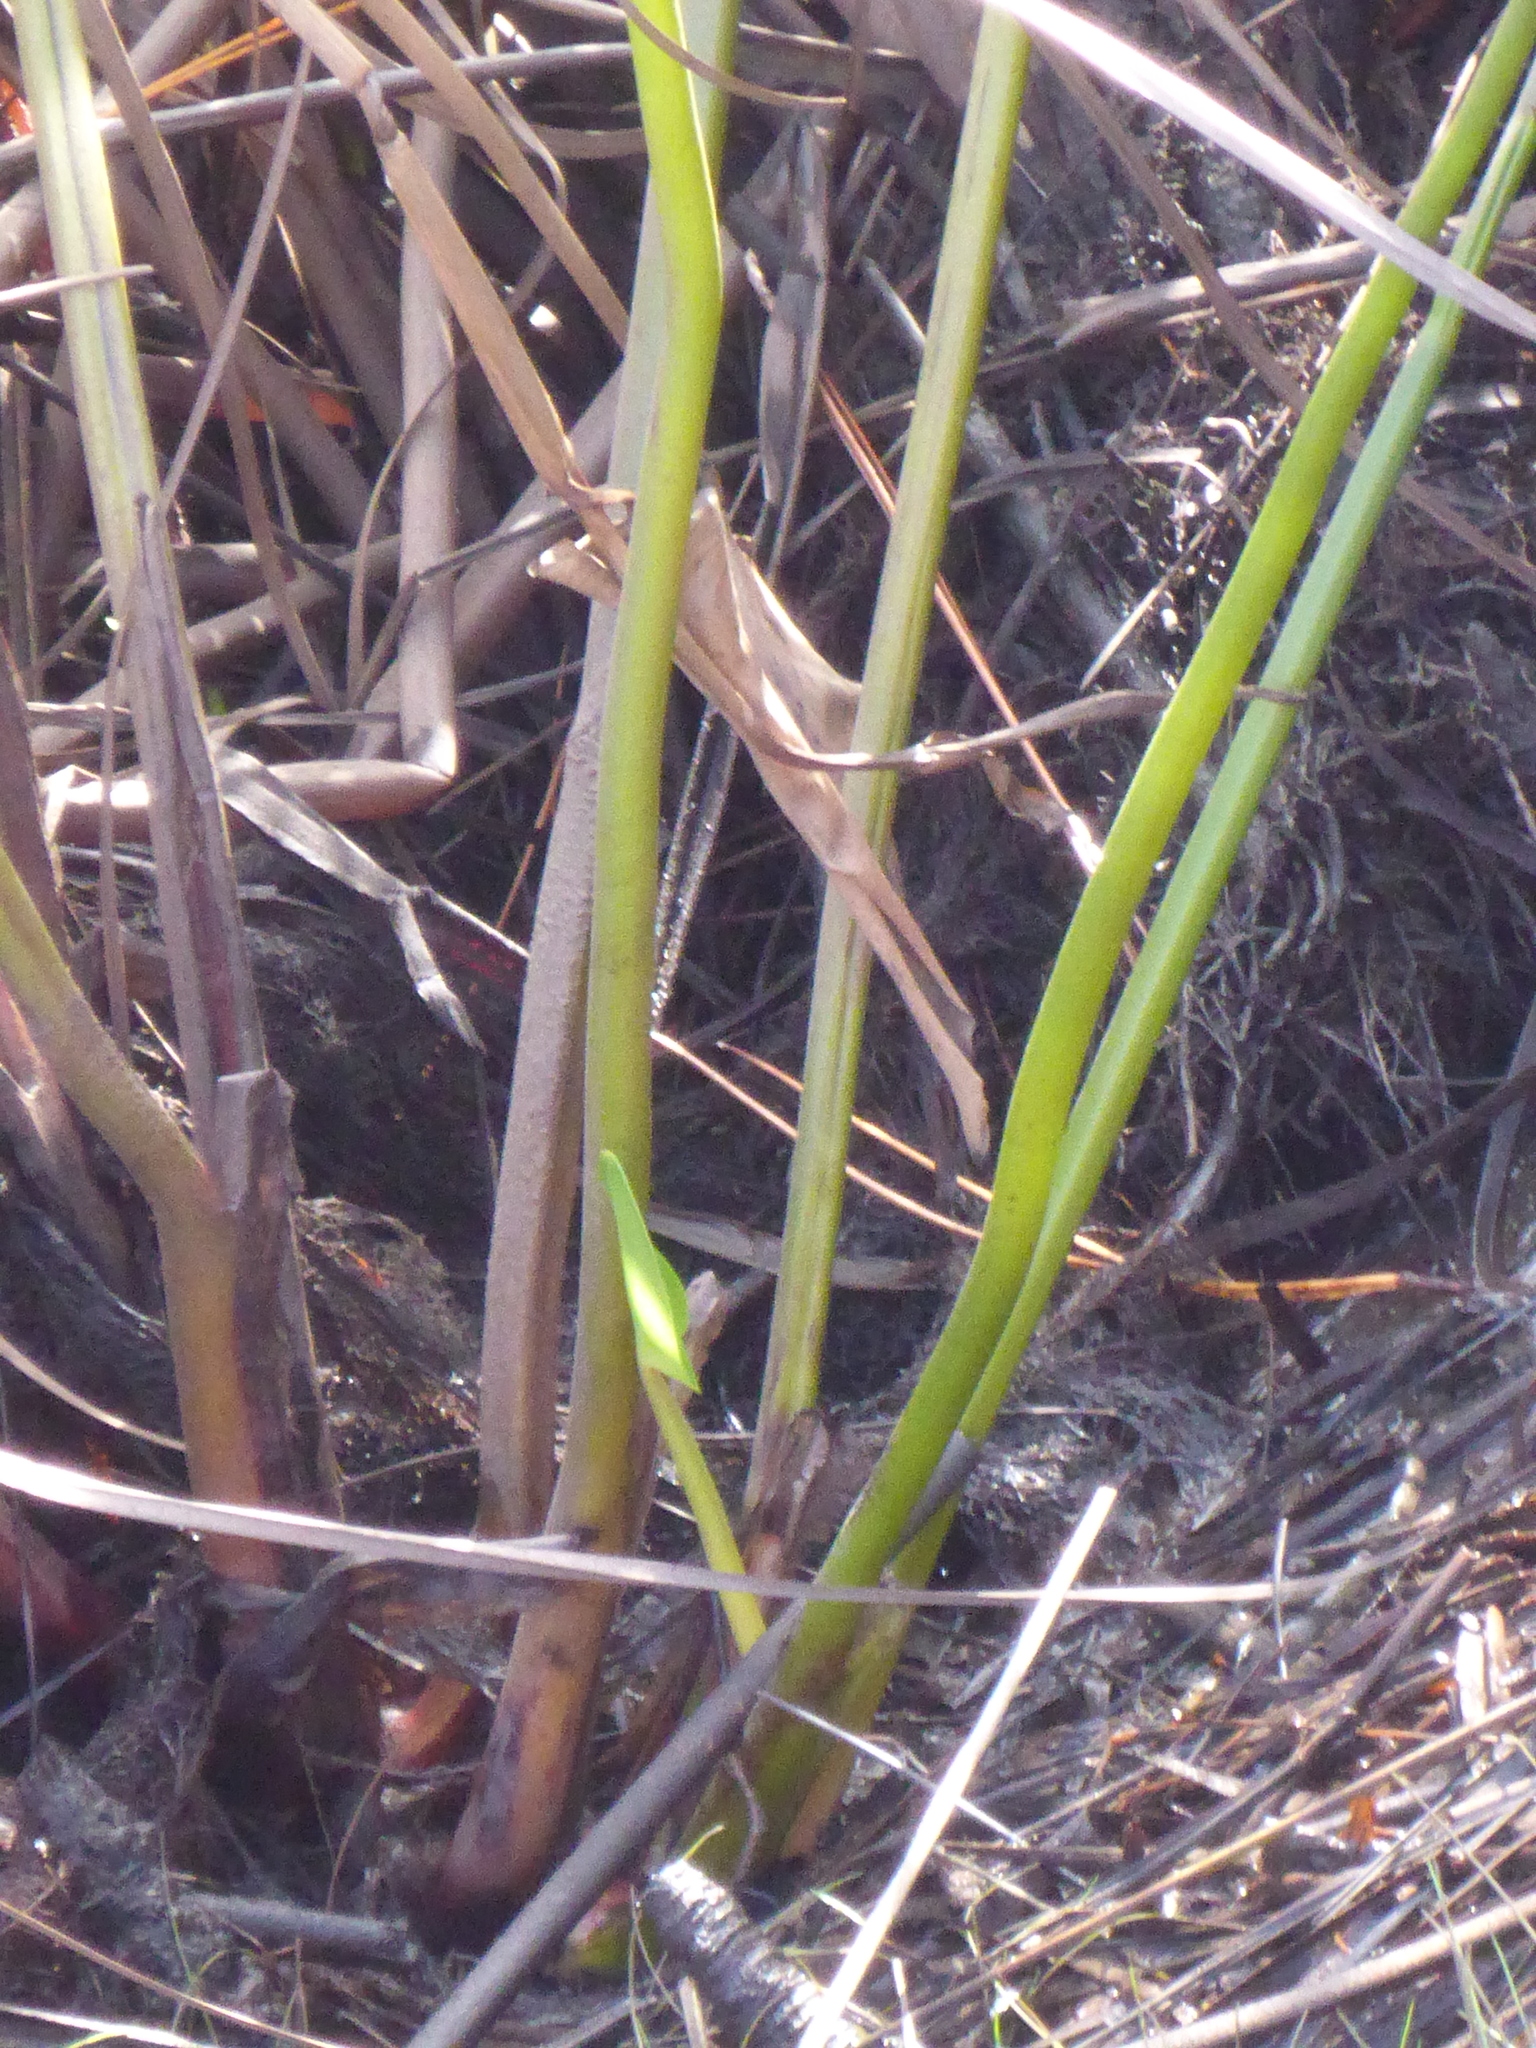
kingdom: Plantae
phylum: Tracheophyta
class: Liliopsida
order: Commelinales
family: Pontederiaceae
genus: Pontederia
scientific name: Pontederia cordata
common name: Pickerelweed
